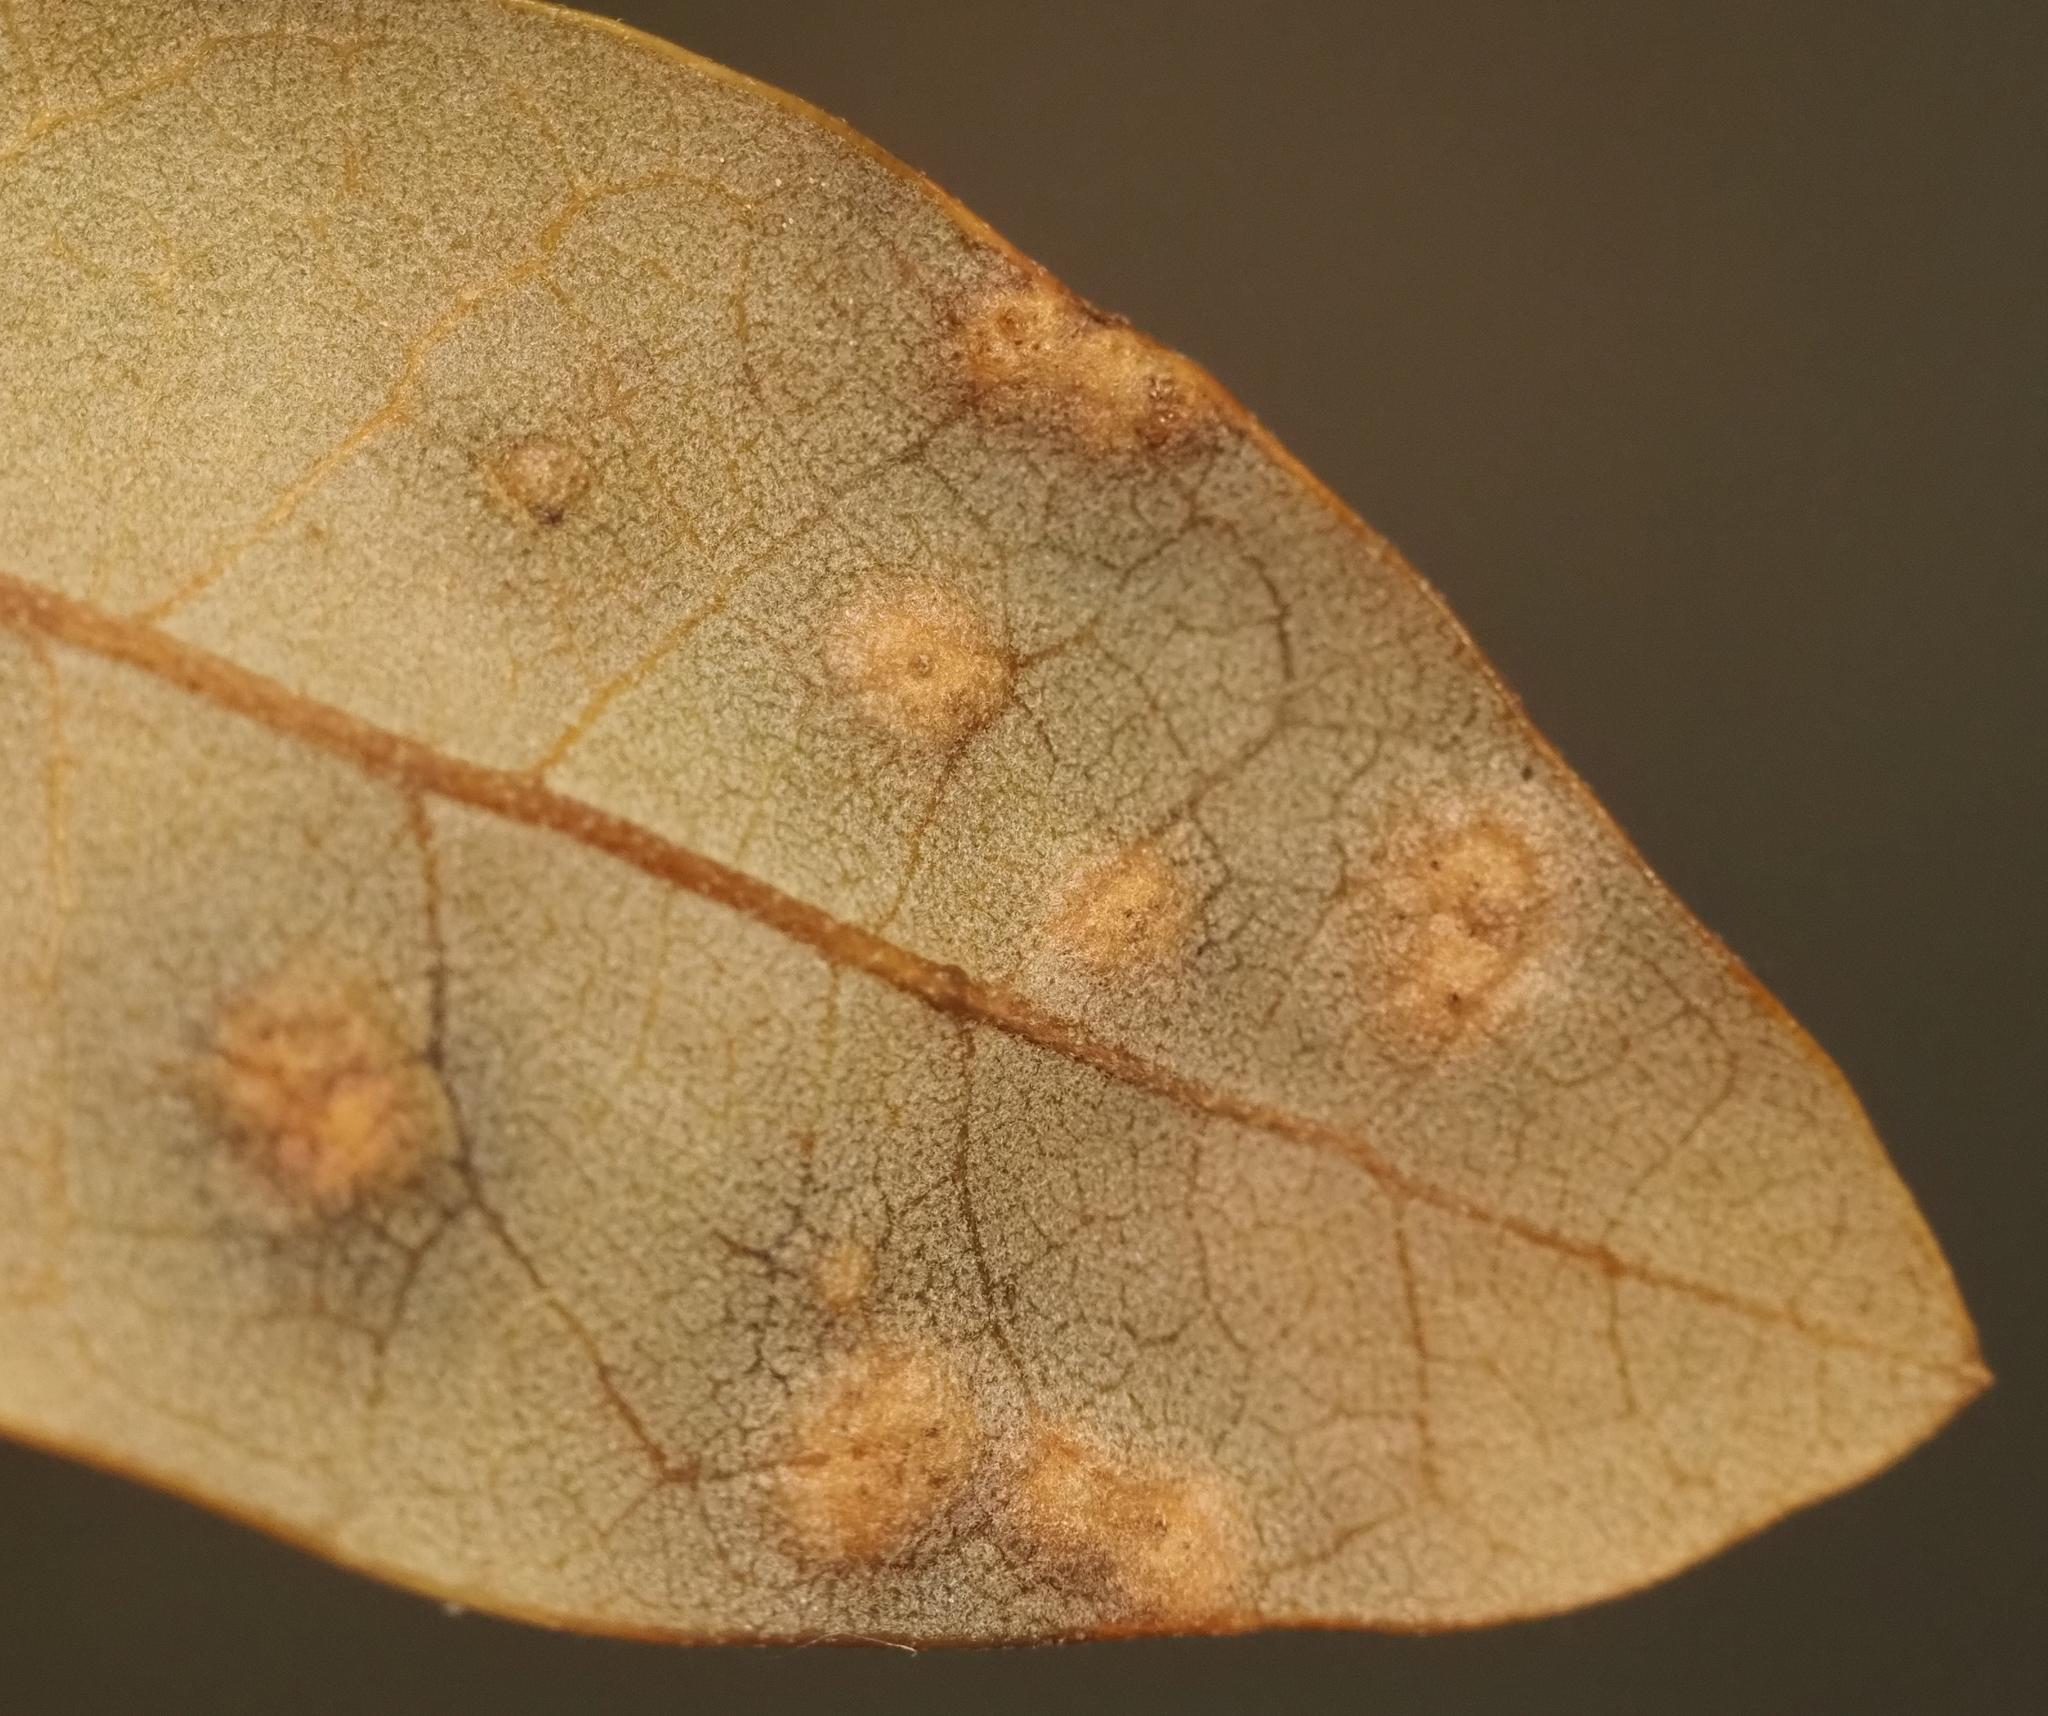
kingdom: Animalia
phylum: Arthropoda
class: Insecta
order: Hymenoptera
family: Cynipidae
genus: Neuroterus
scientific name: Neuroterus bussae
